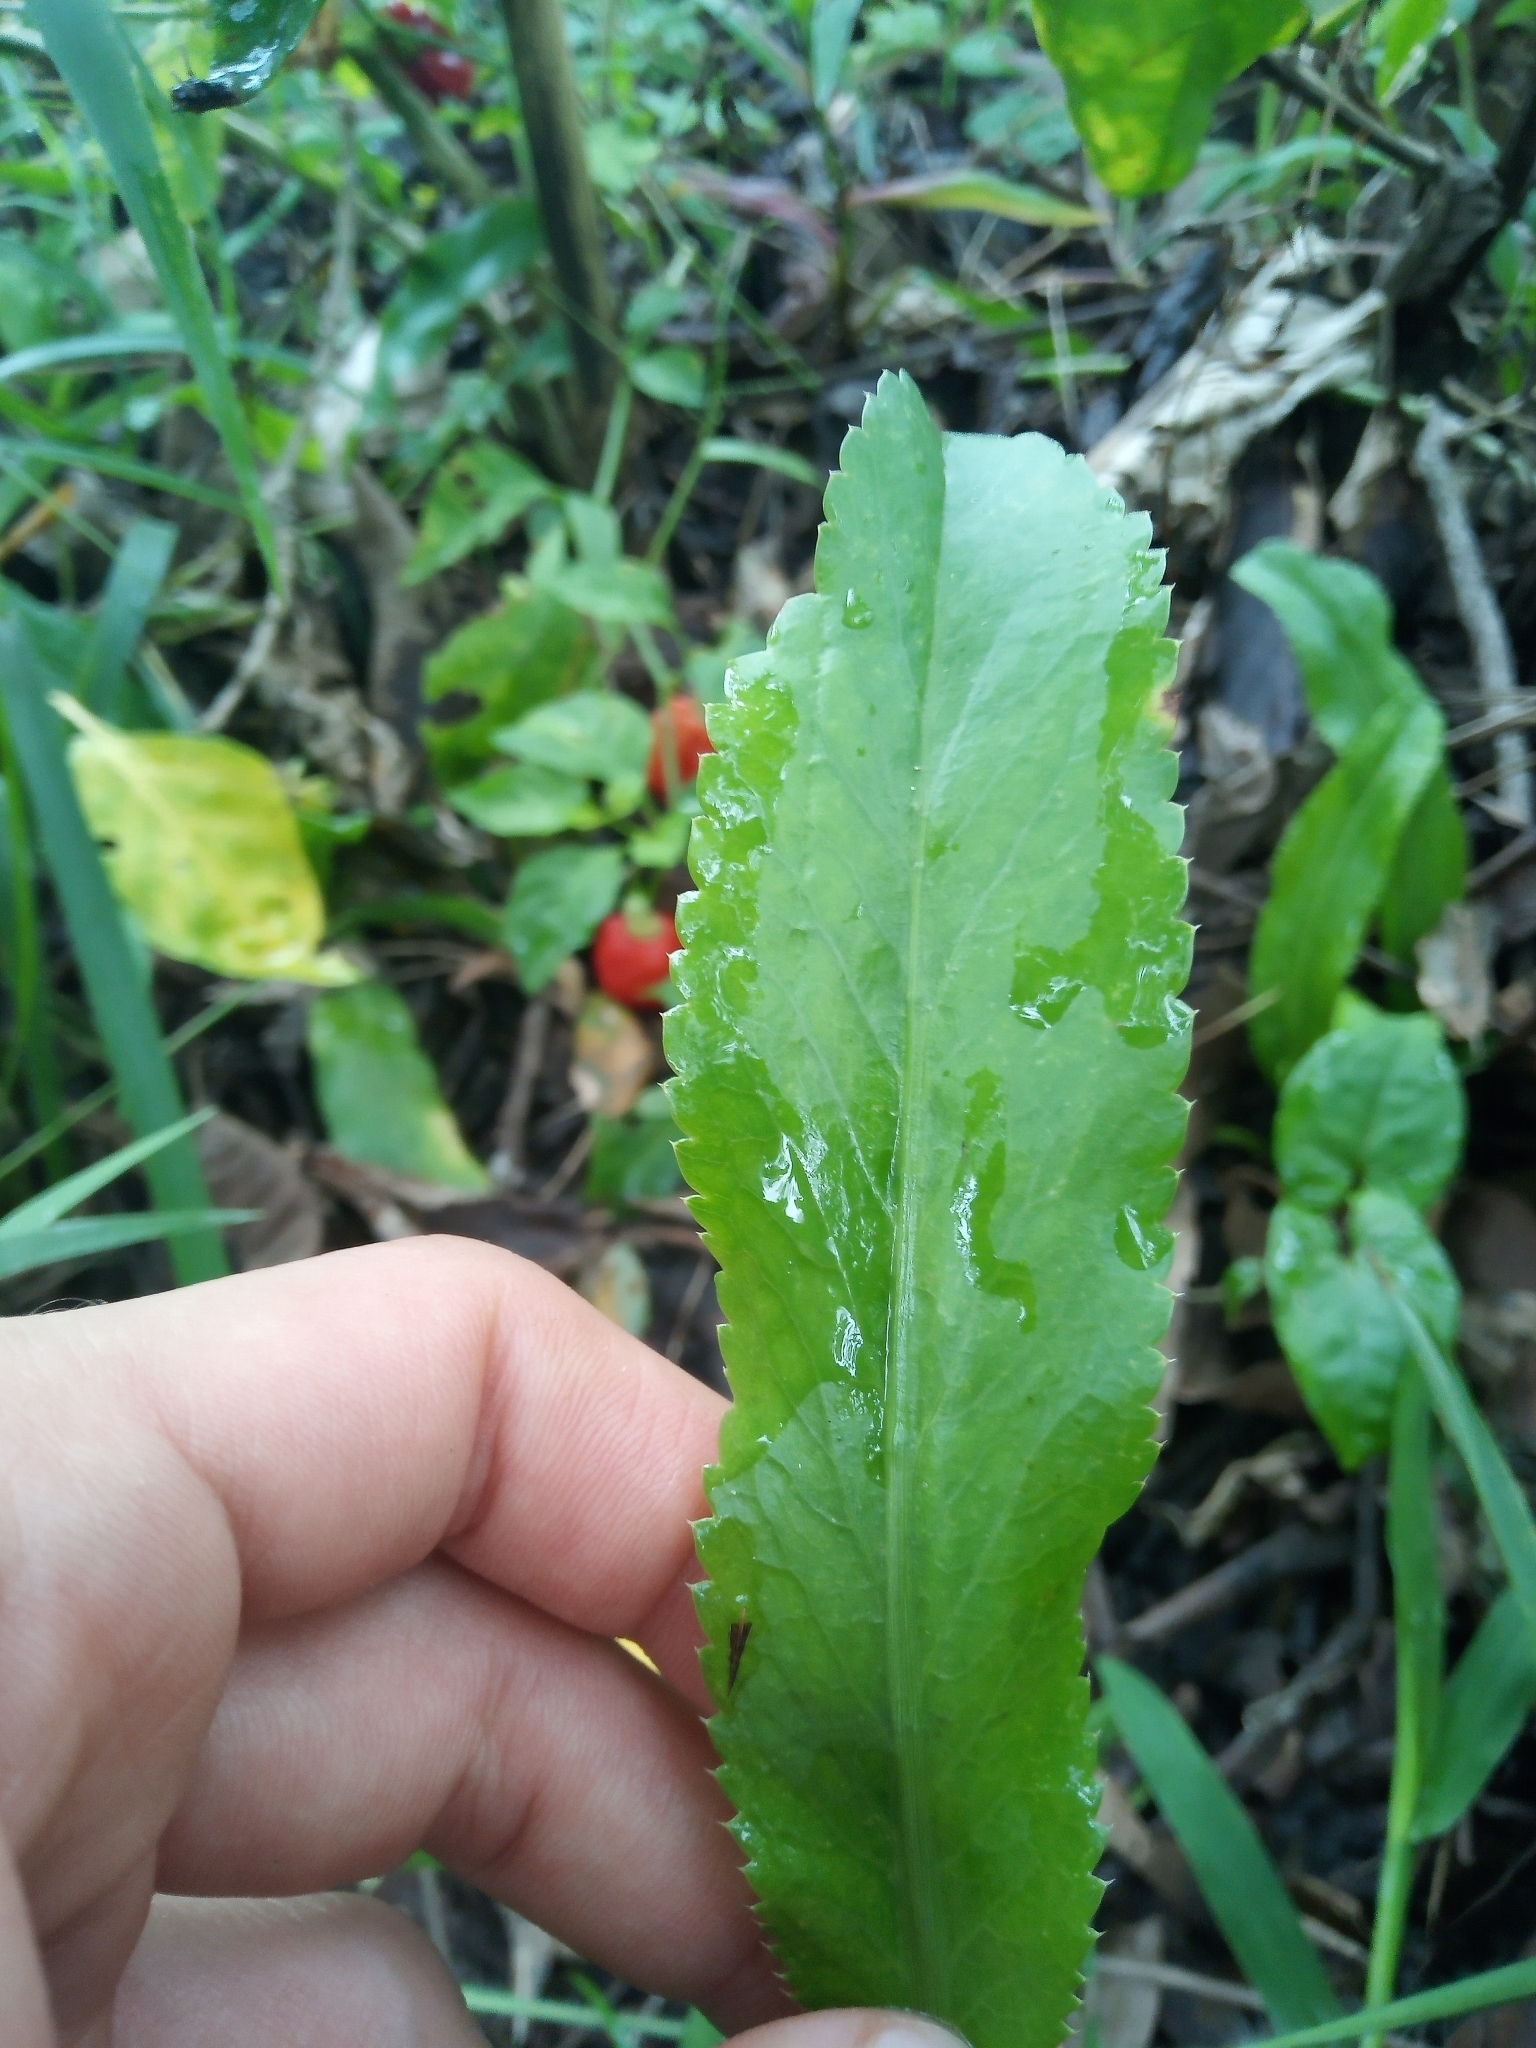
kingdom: Plantae
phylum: Tracheophyta
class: Magnoliopsida
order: Apiales
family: Apiaceae
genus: Eryngium
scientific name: Eryngium foetidum
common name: Fitweed
